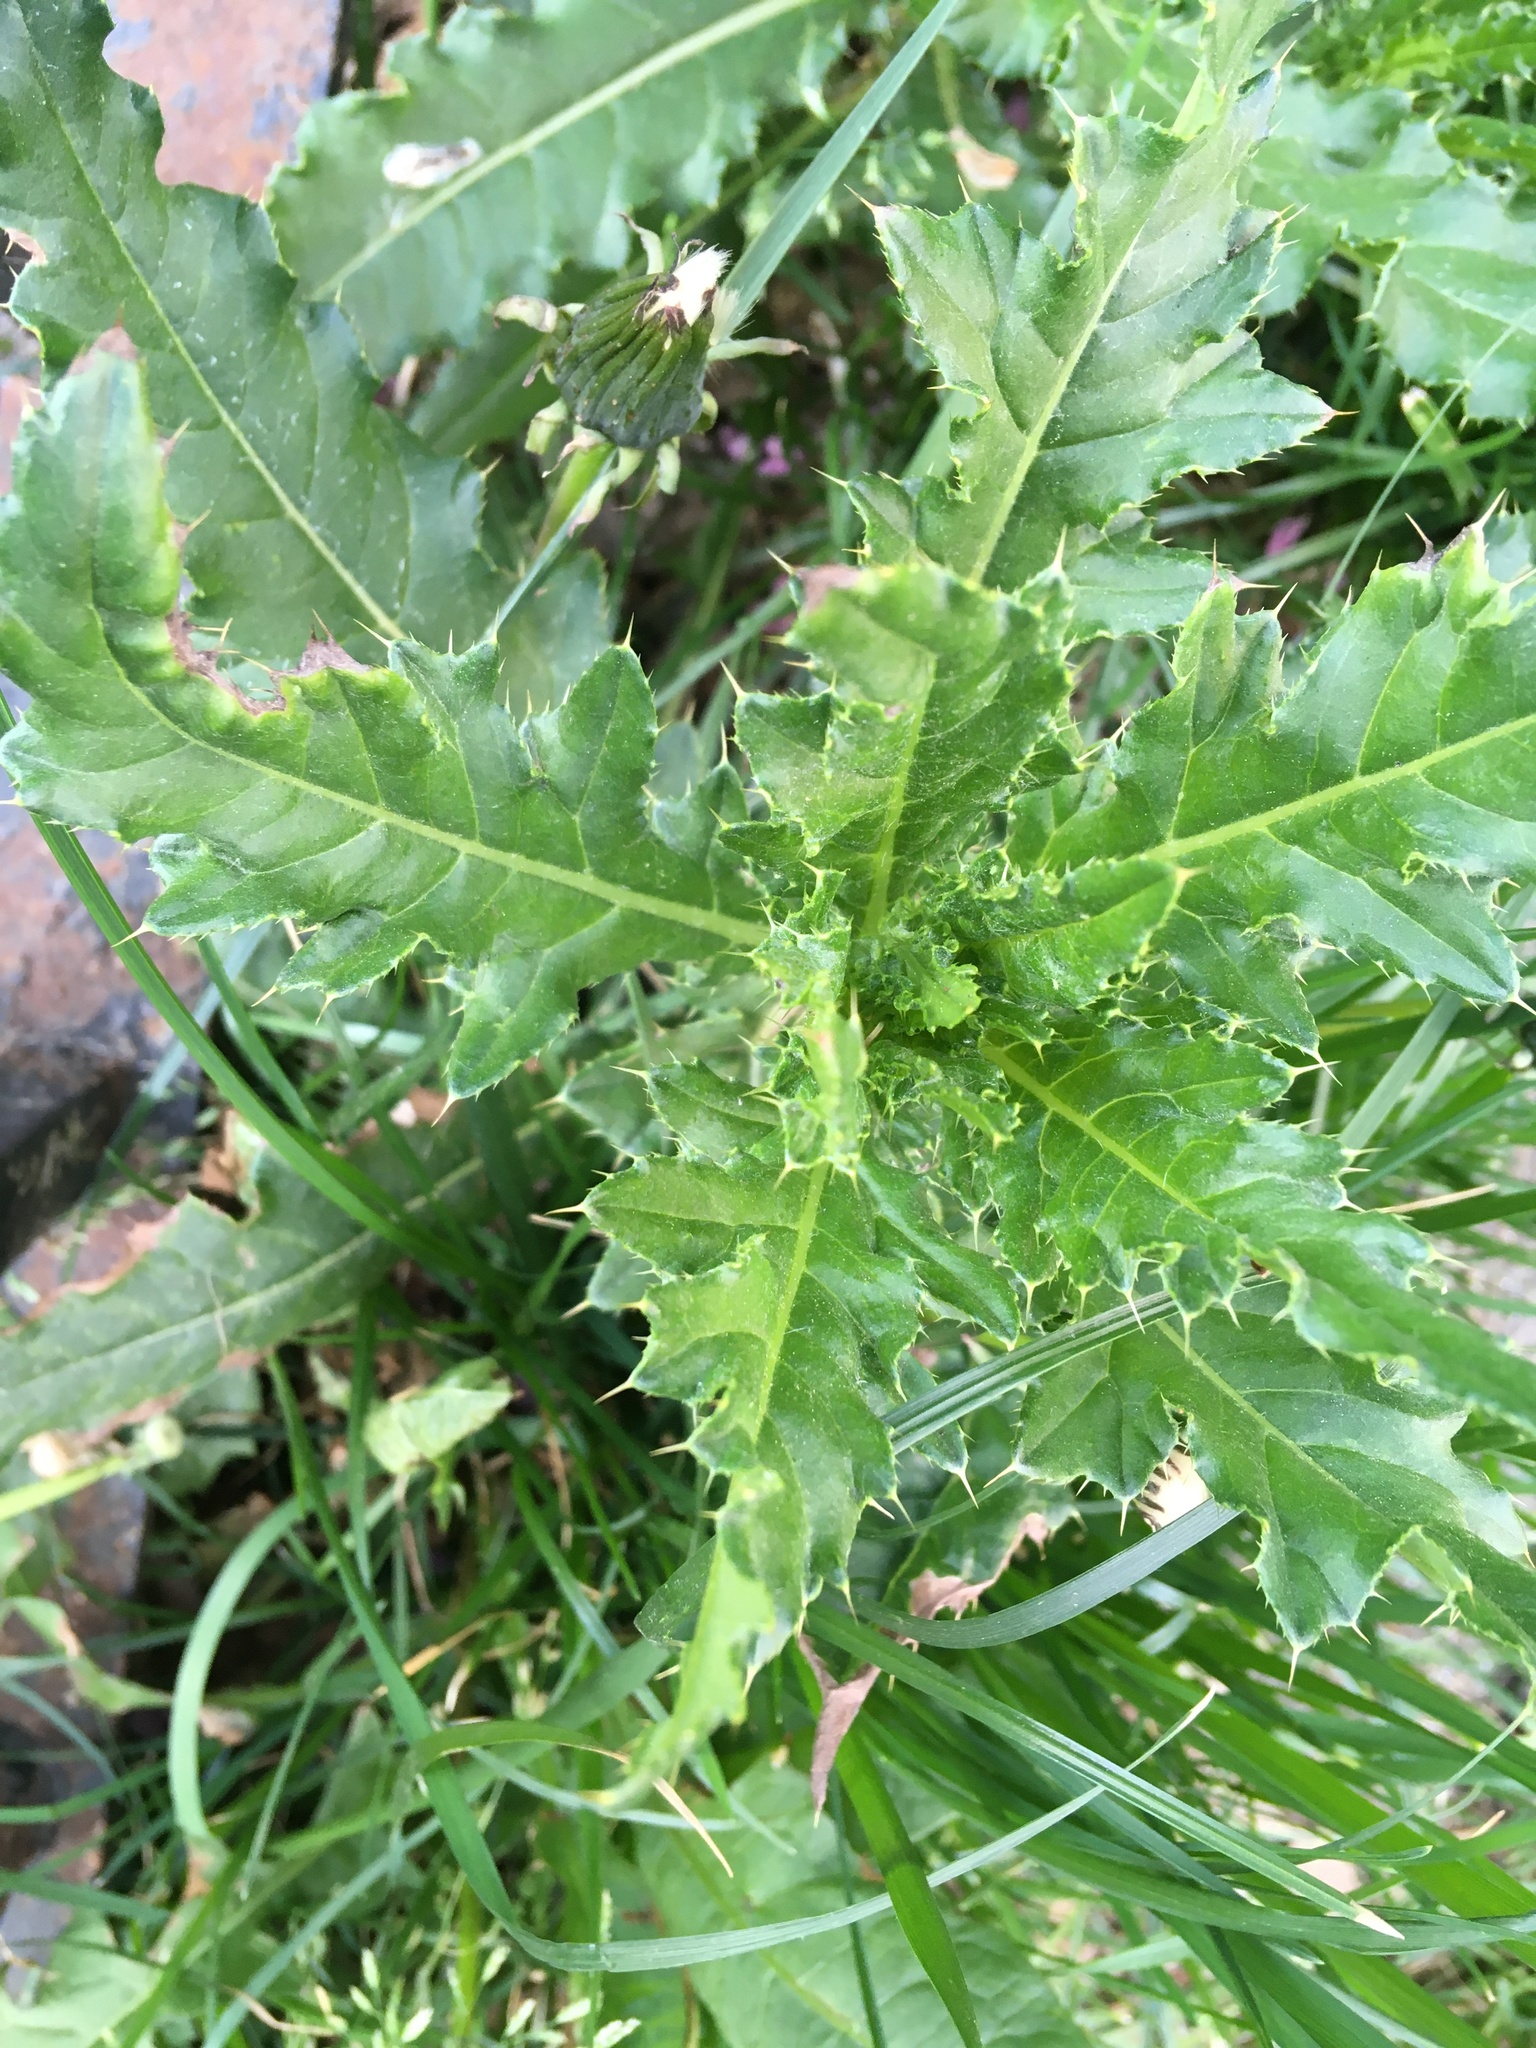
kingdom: Plantae
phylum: Tracheophyta
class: Magnoliopsida
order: Asterales
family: Asteraceae
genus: Cirsium
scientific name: Cirsium arvense
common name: Creeping thistle
